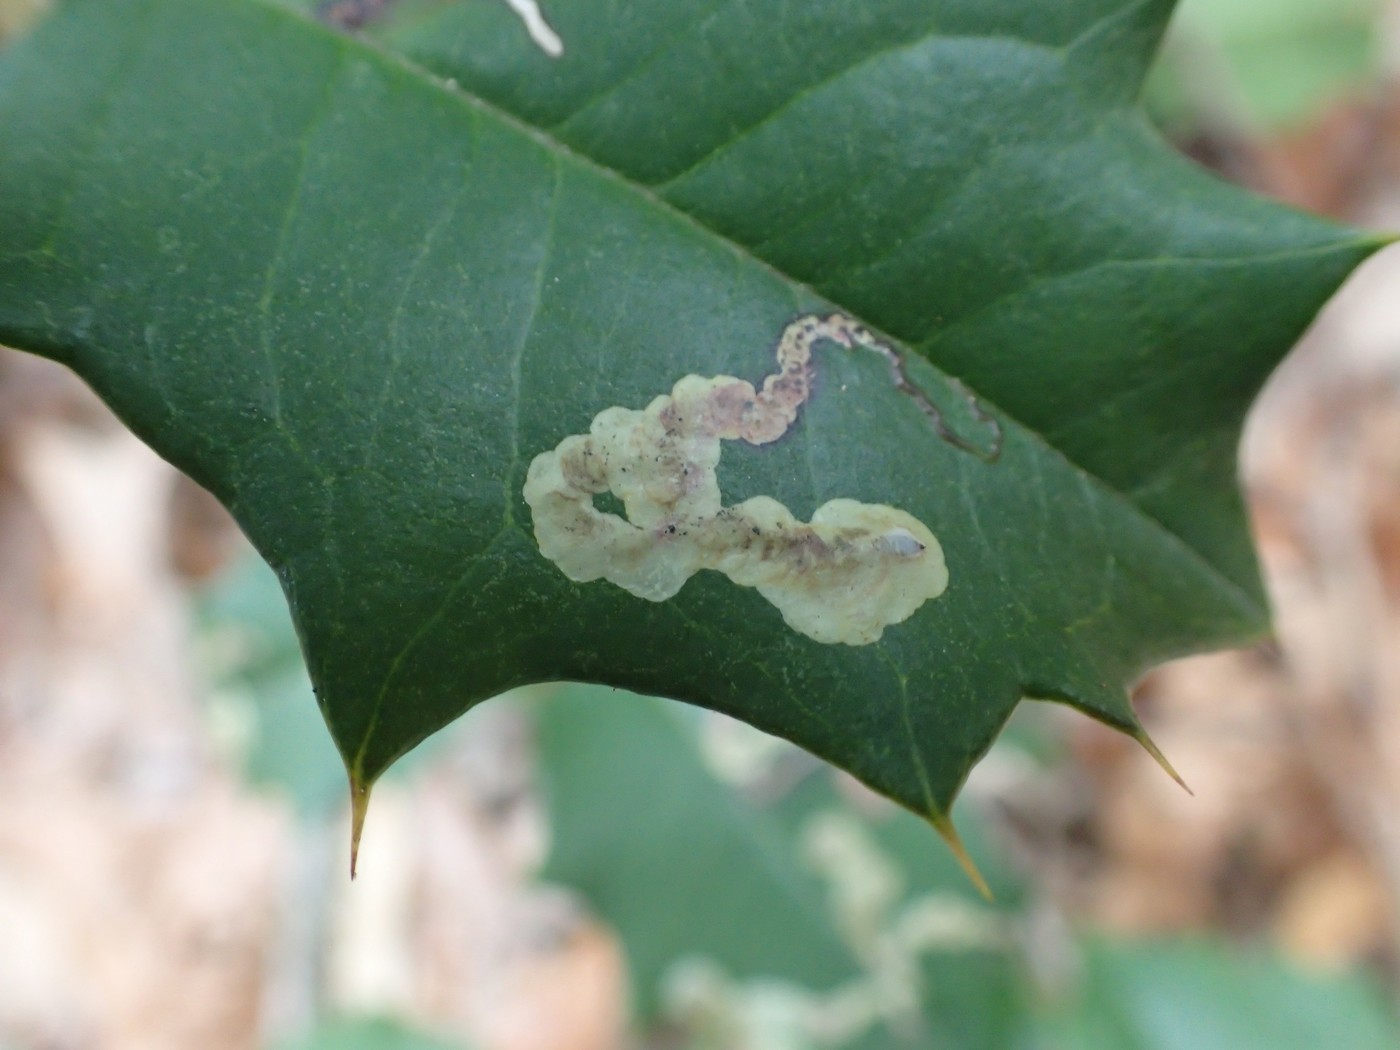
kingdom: Animalia
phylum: Arthropoda
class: Insecta
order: Diptera
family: Agromyzidae
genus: Phytomyza
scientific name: Phytomyza ilicicola
